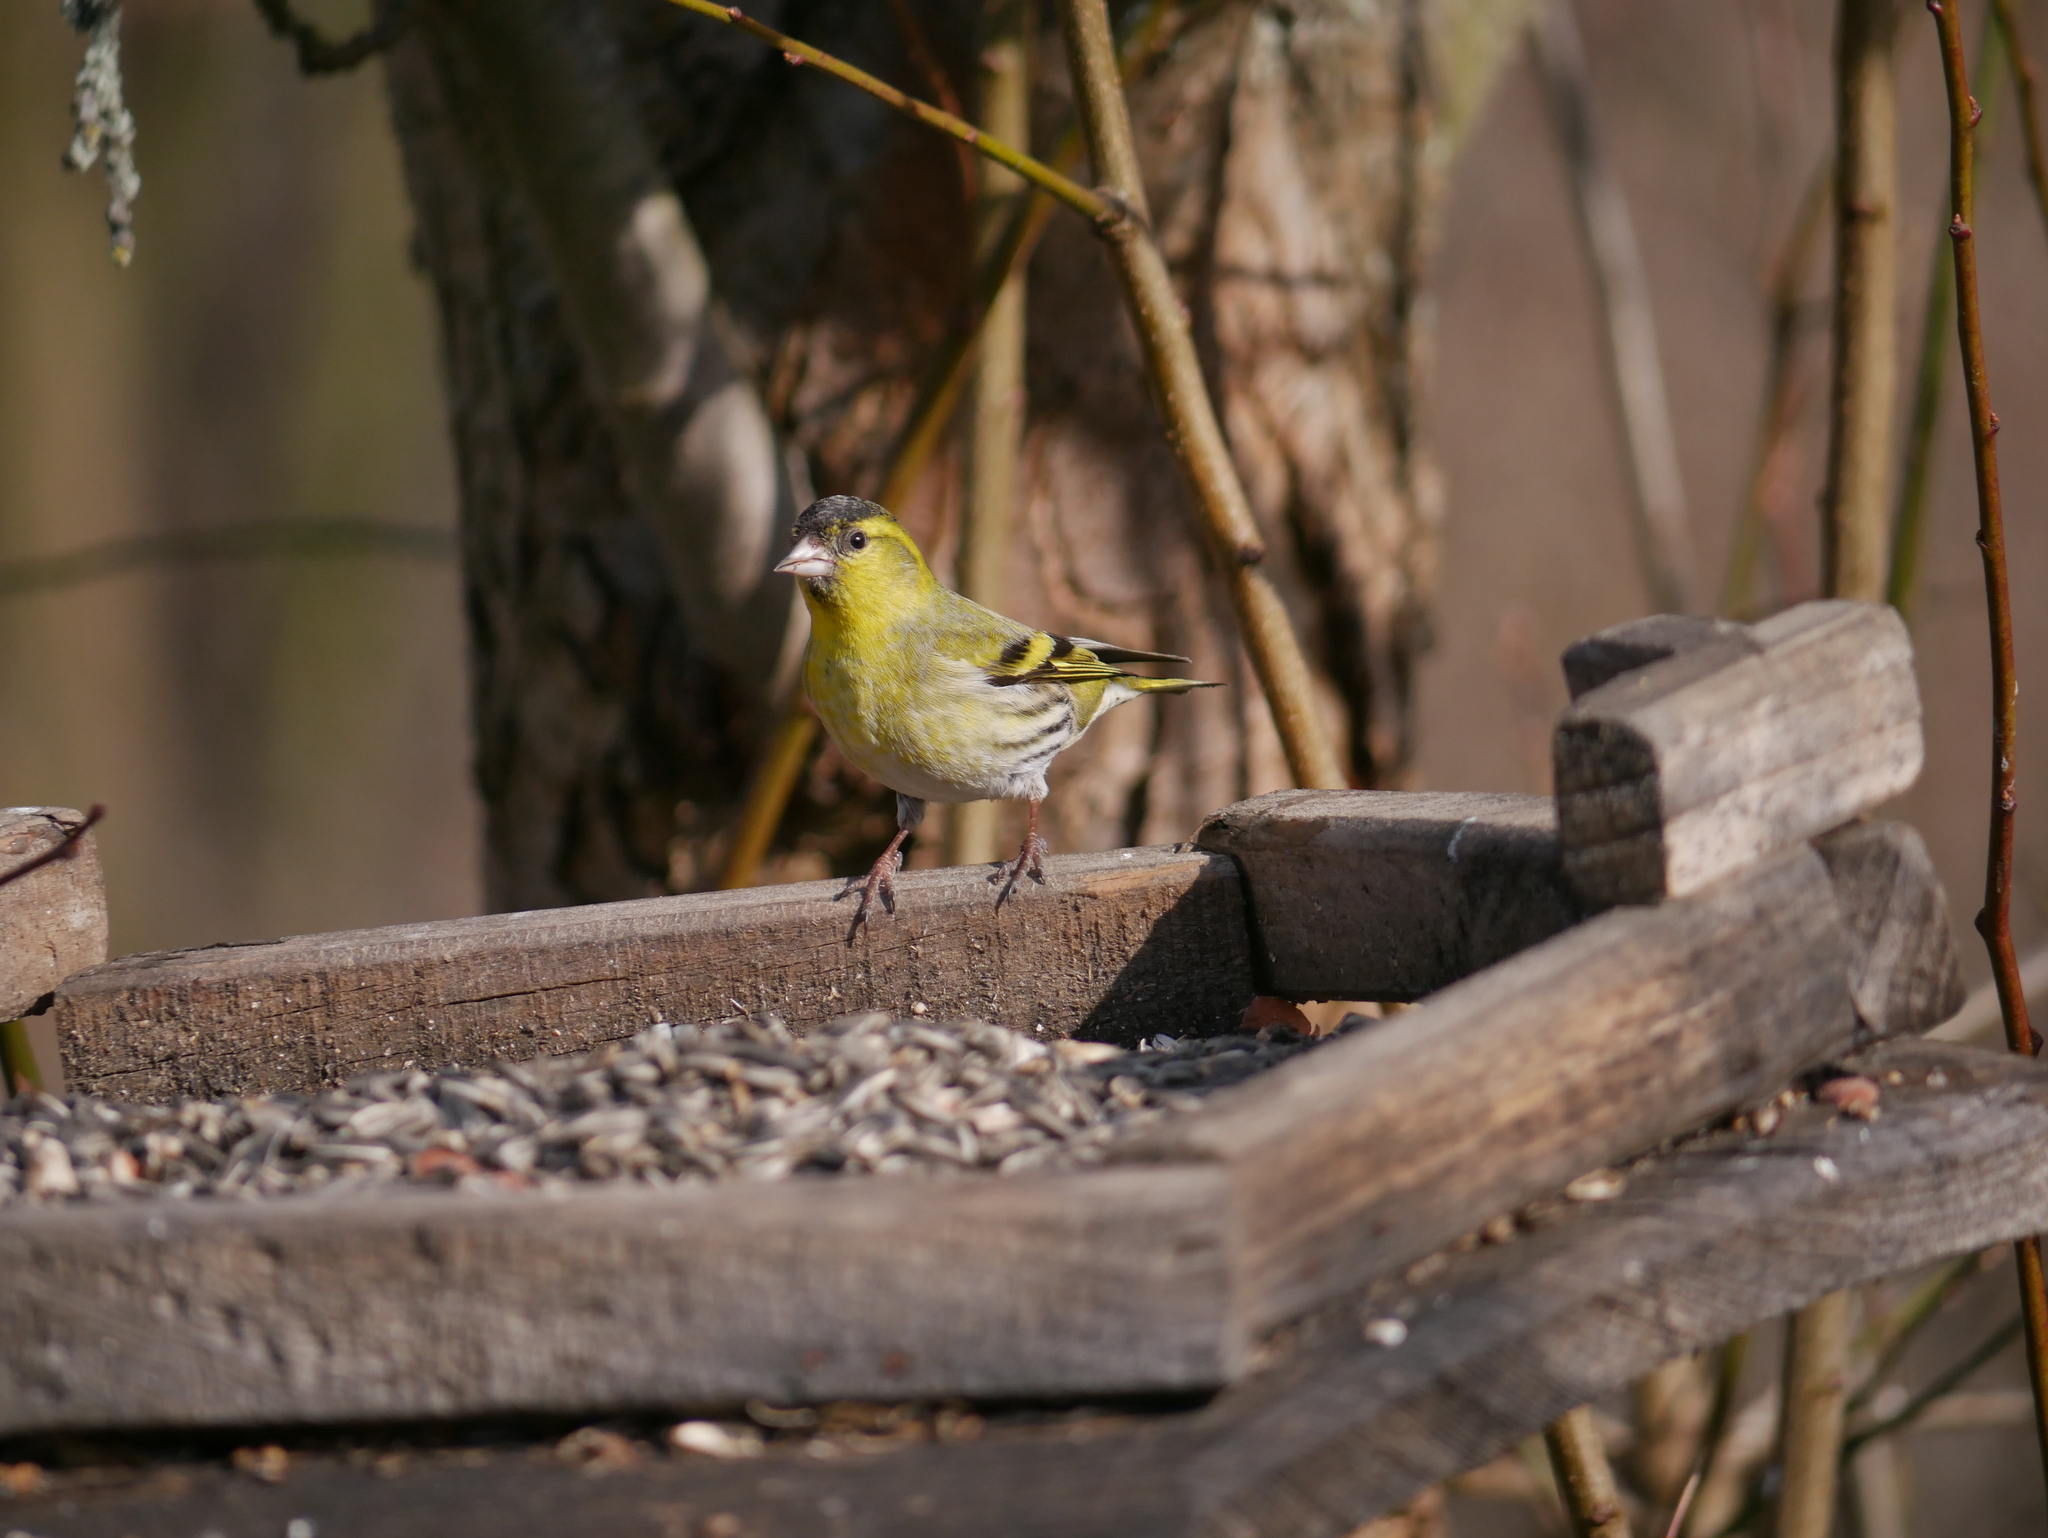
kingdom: Animalia
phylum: Chordata
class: Aves
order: Passeriformes
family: Fringillidae
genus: Spinus
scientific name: Spinus spinus
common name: Eurasian siskin
